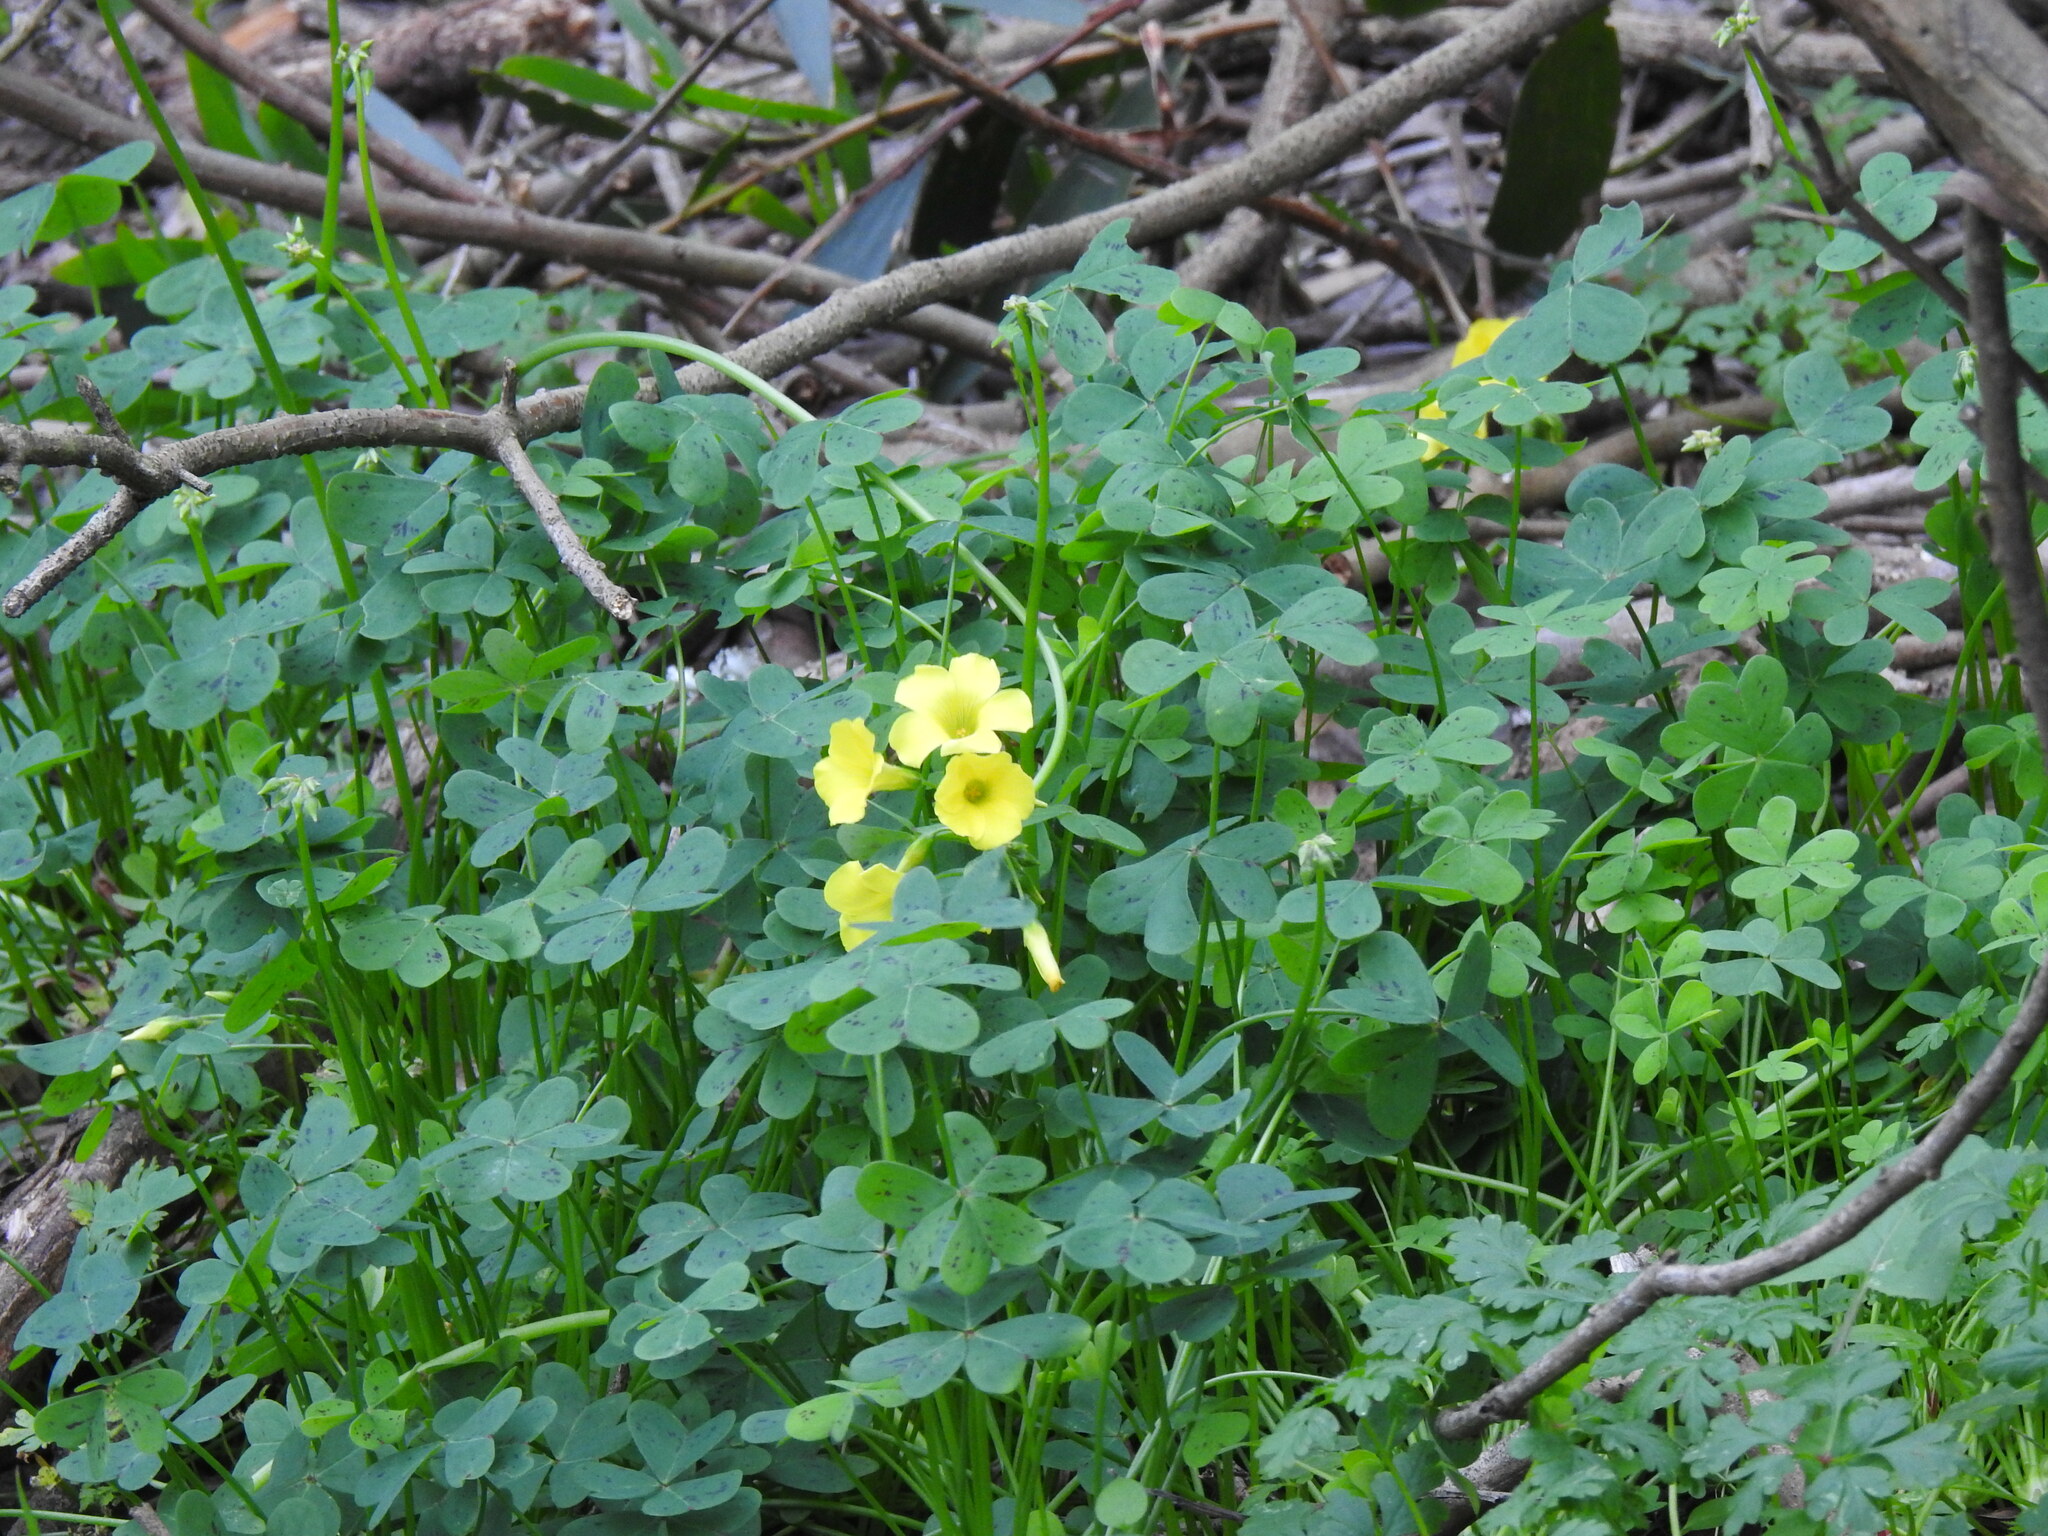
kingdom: Plantae
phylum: Tracheophyta
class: Magnoliopsida
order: Oxalidales
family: Oxalidaceae
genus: Oxalis
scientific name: Oxalis pes-caprae
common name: Bermuda-buttercup
